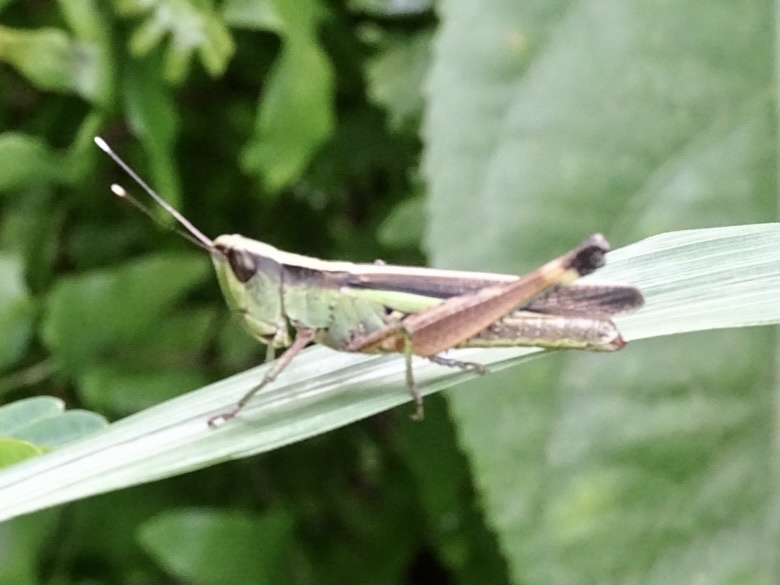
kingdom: Animalia
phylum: Arthropoda
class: Insecta
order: Orthoptera
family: Acrididae
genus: Ceracris
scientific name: Ceracris fasciata
